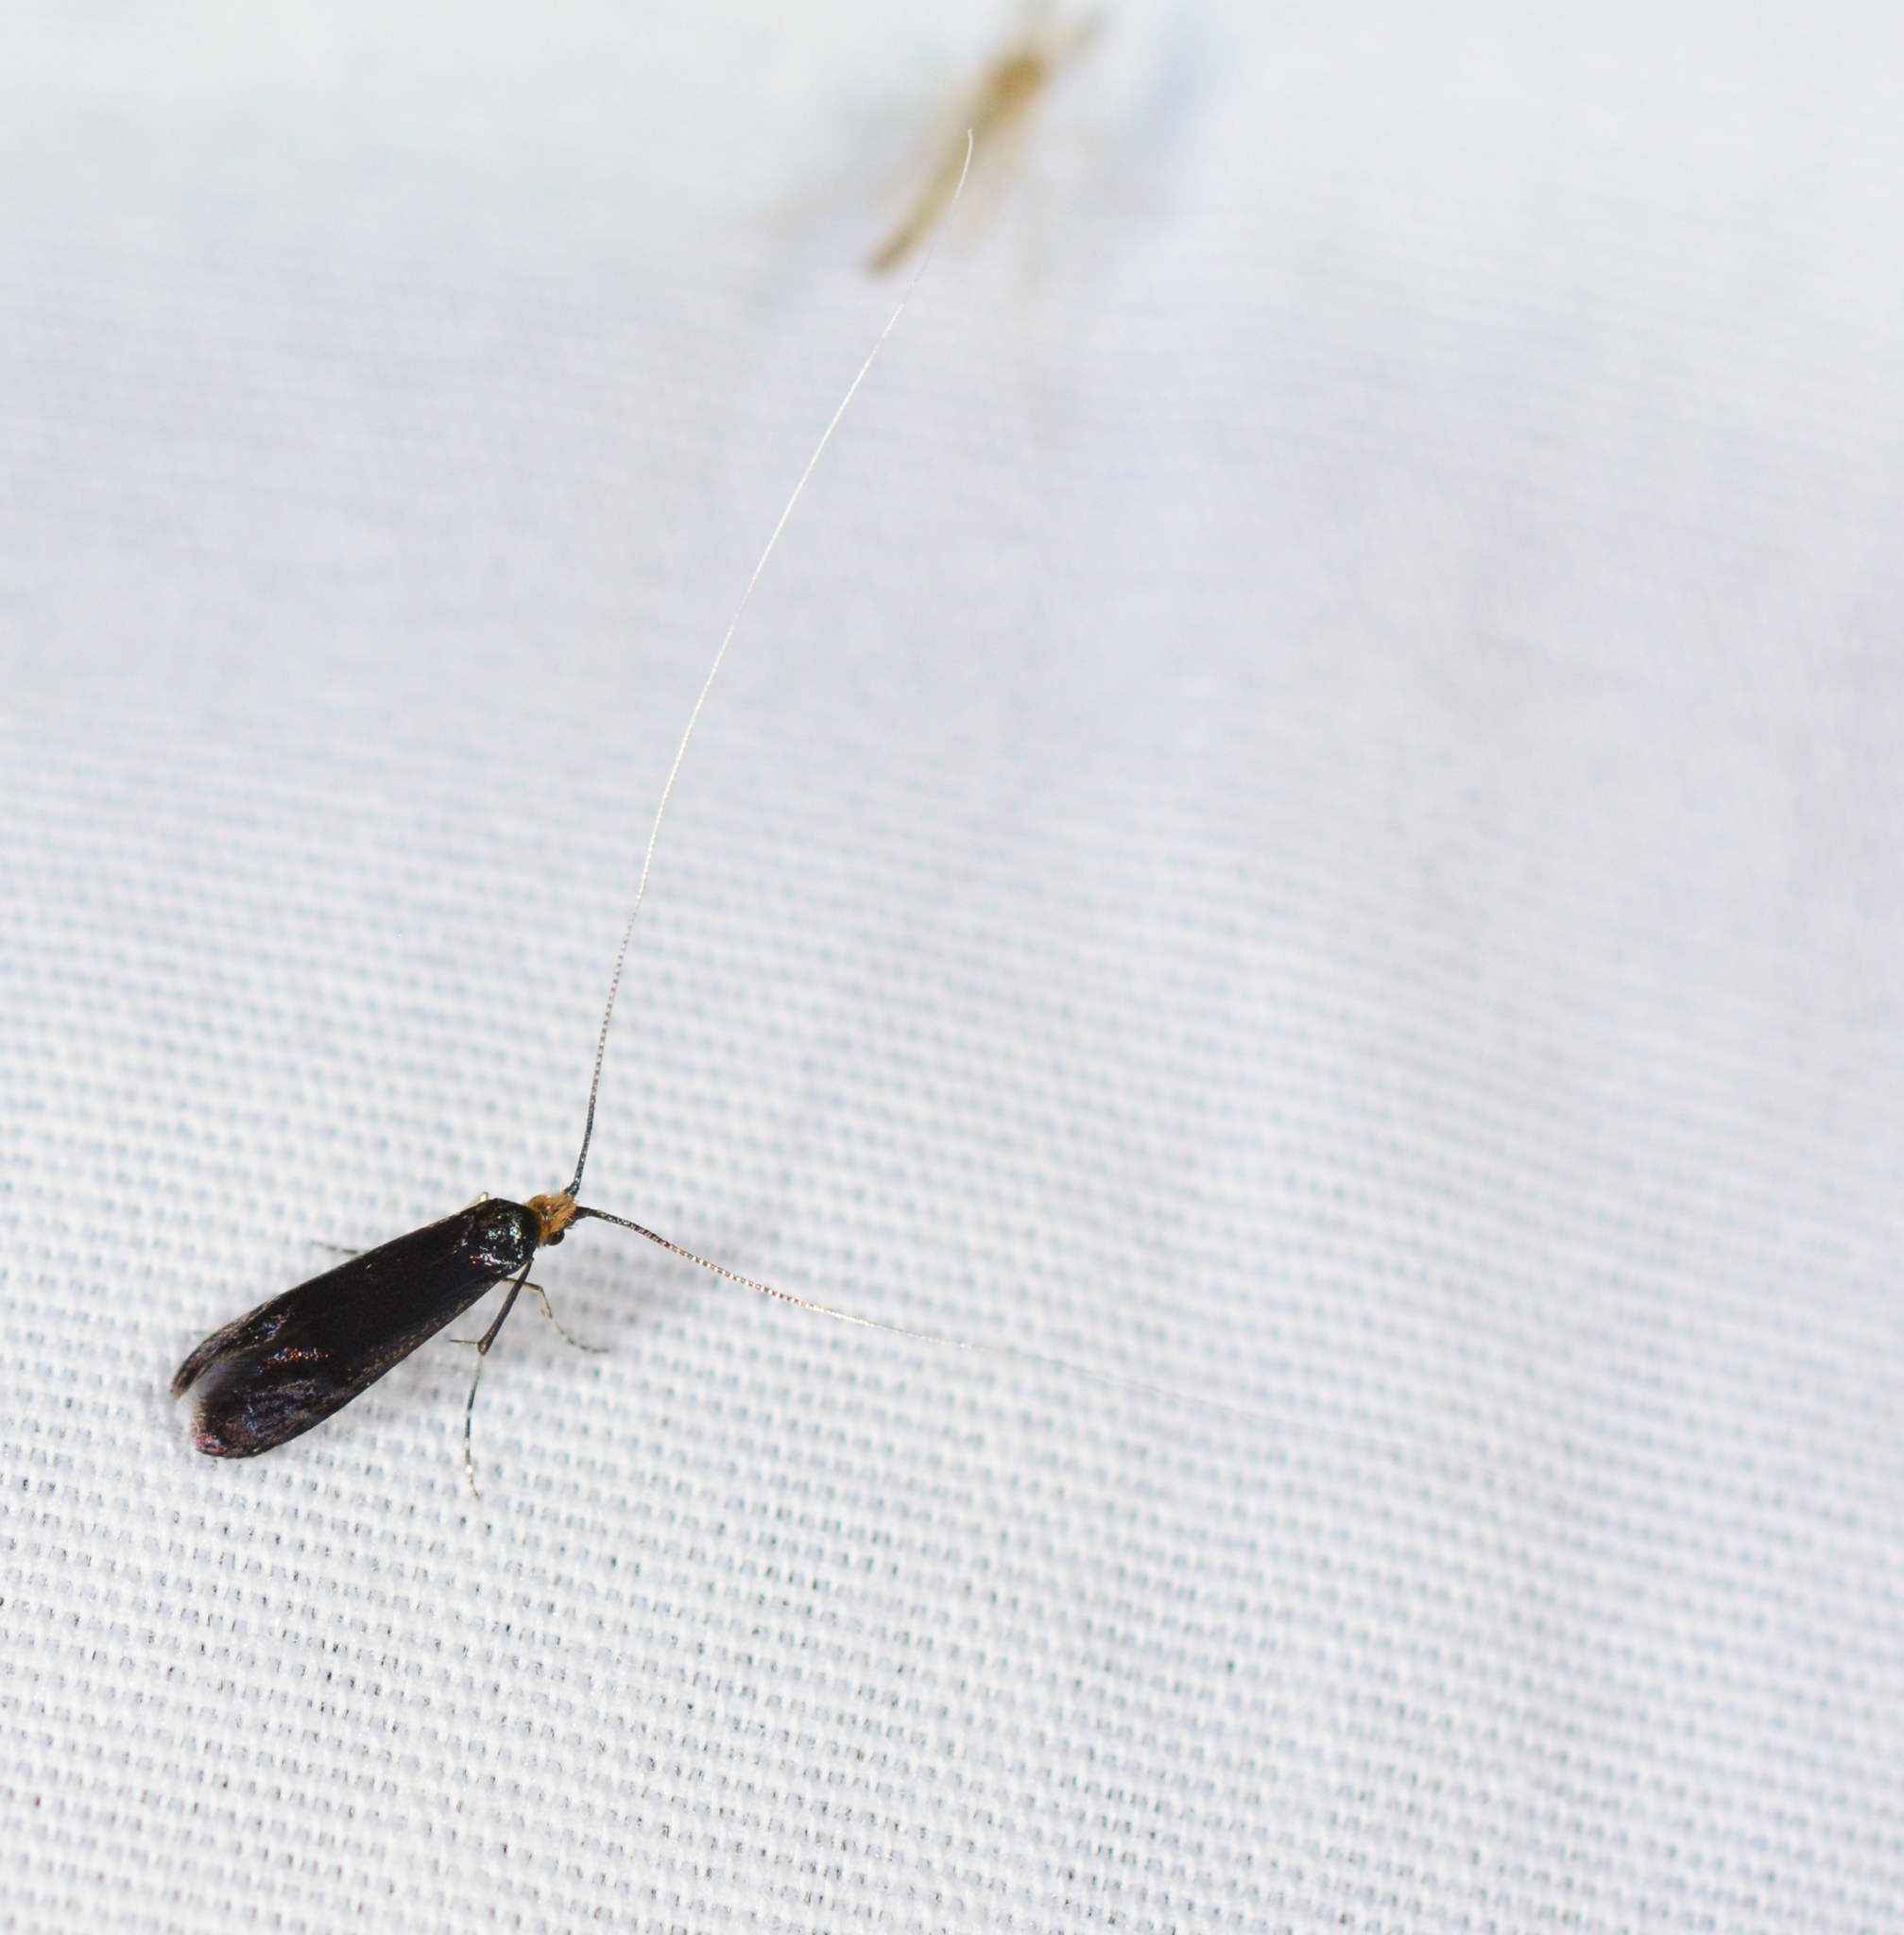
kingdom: Animalia
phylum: Arthropoda
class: Insecta
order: Lepidoptera
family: Adelidae
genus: Adela
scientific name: Adela caeruleella
